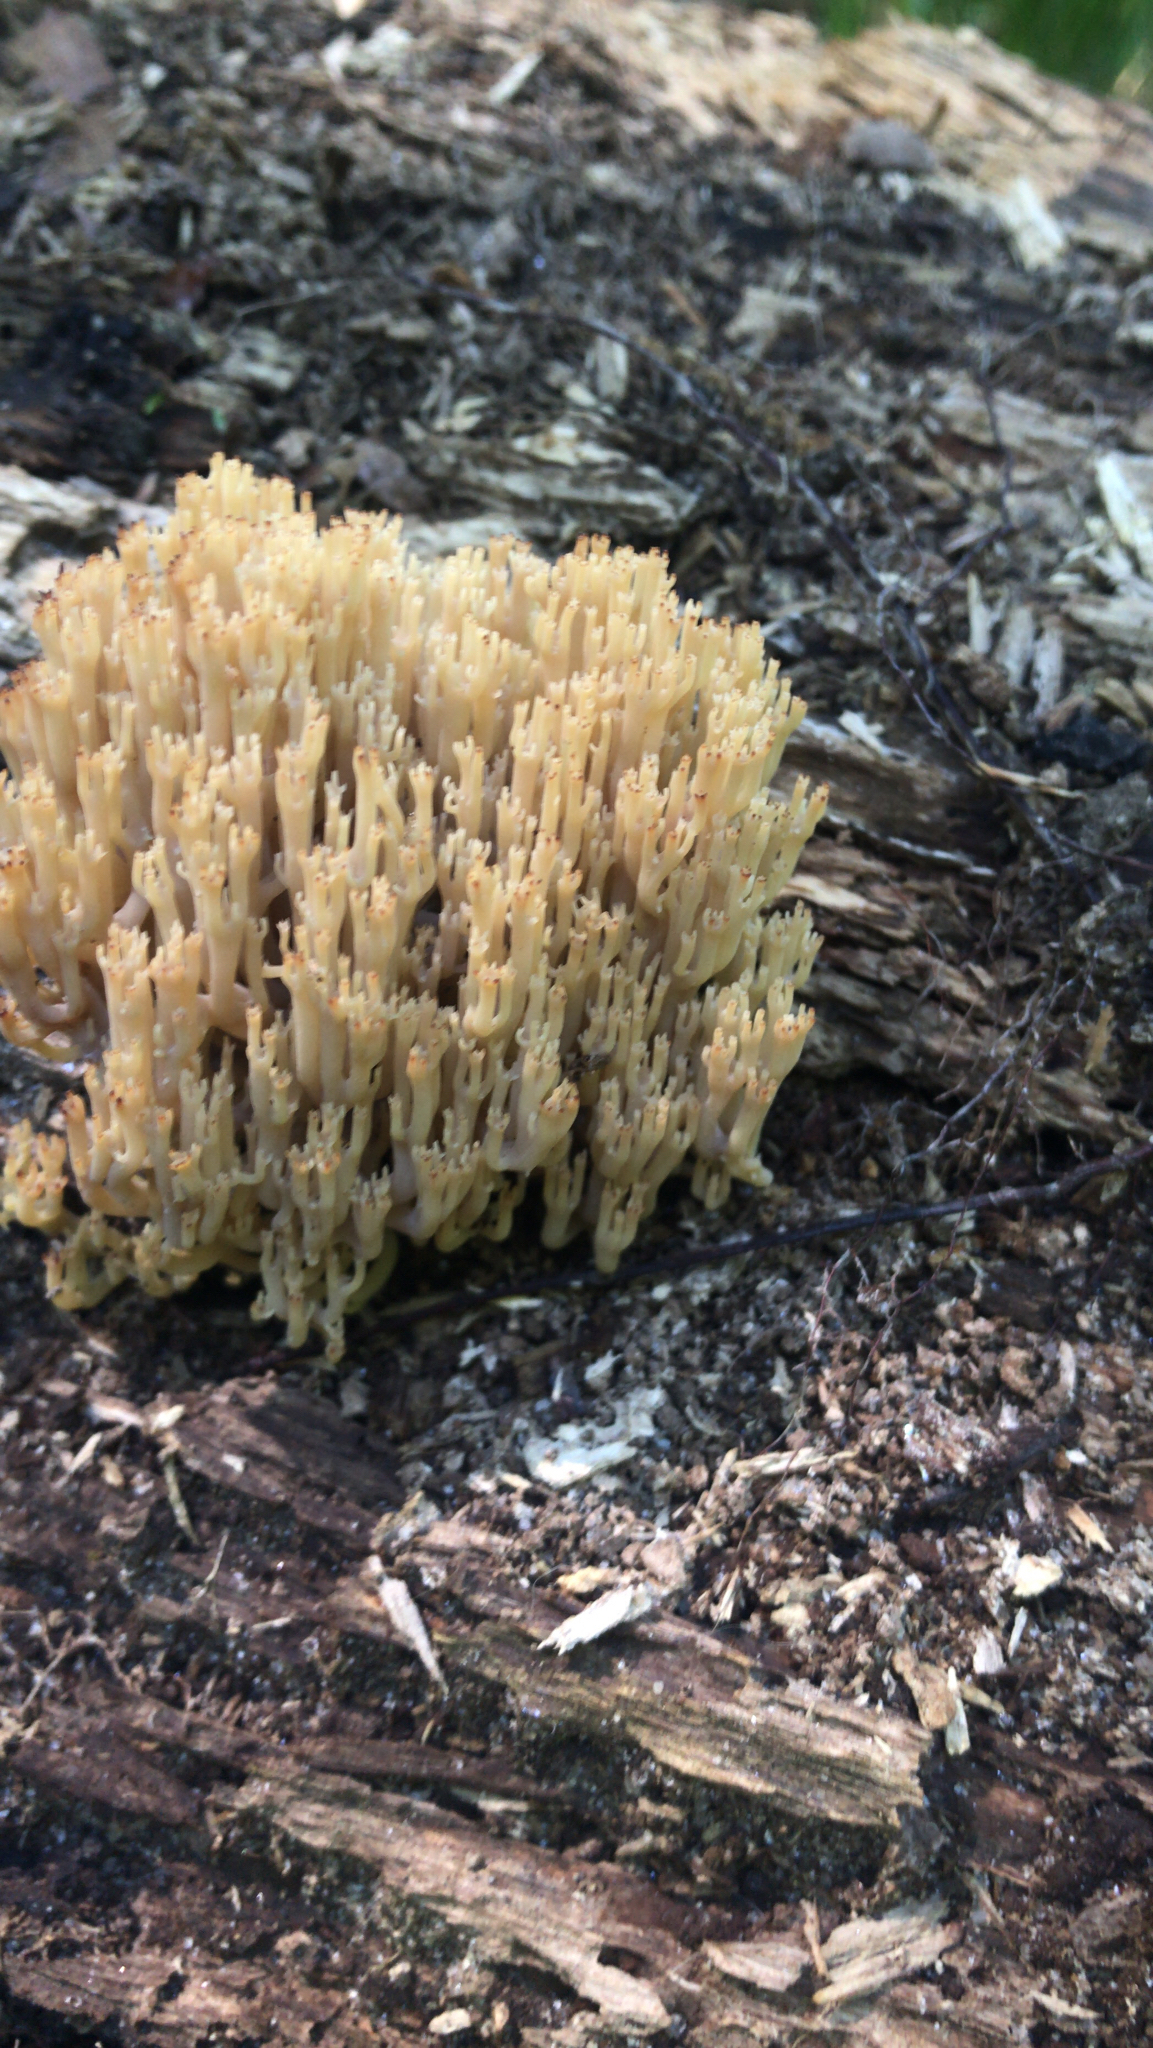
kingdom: Fungi
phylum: Basidiomycota
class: Agaricomycetes
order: Russulales
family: Auriscalpiaceae
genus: Artomyces
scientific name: Artomyces pyxidatus
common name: Crown-tipped coral fungus
